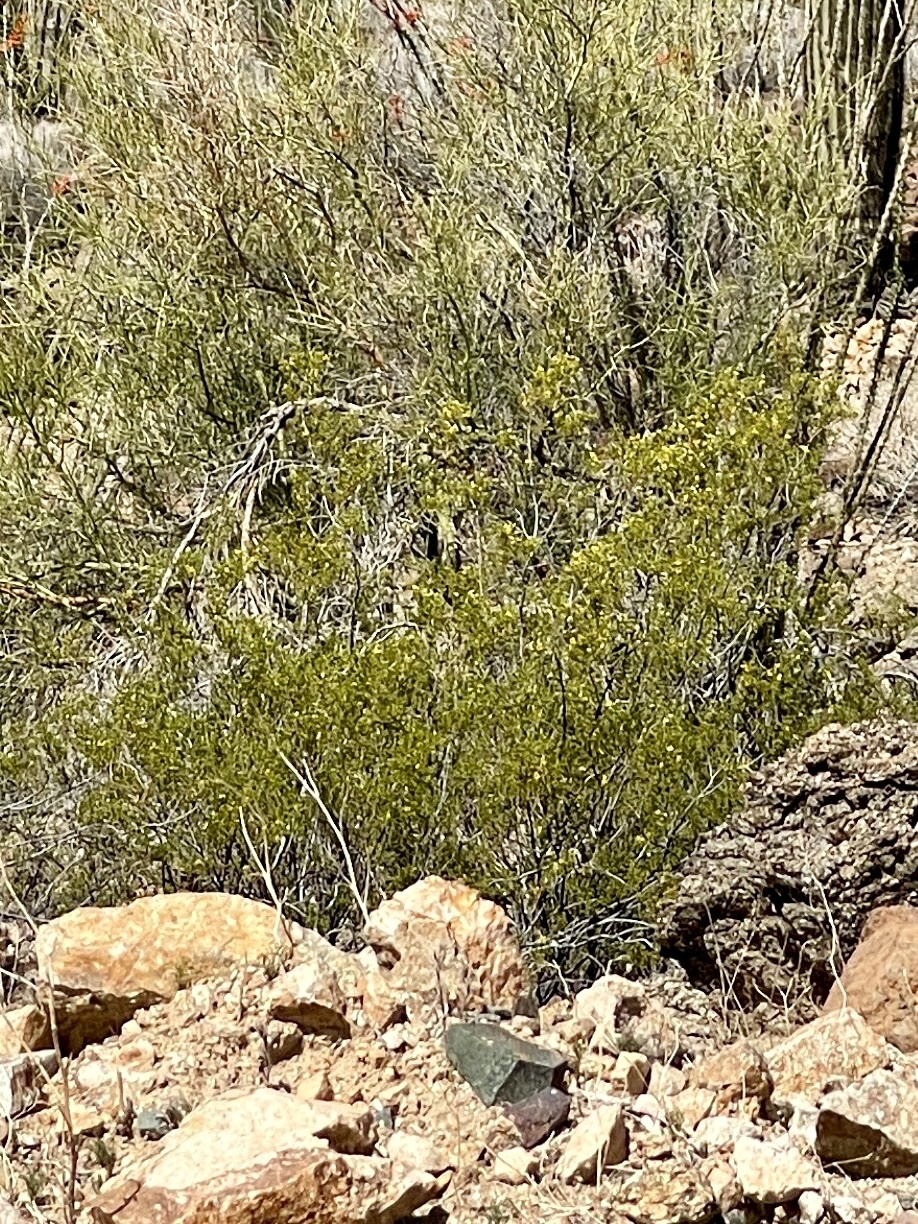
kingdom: Plantae
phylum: Tracheophyta
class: Magnoliopsida
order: Zygophyllales
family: Zygophyllaceae
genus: Larrea
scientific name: Larrea tridentata
